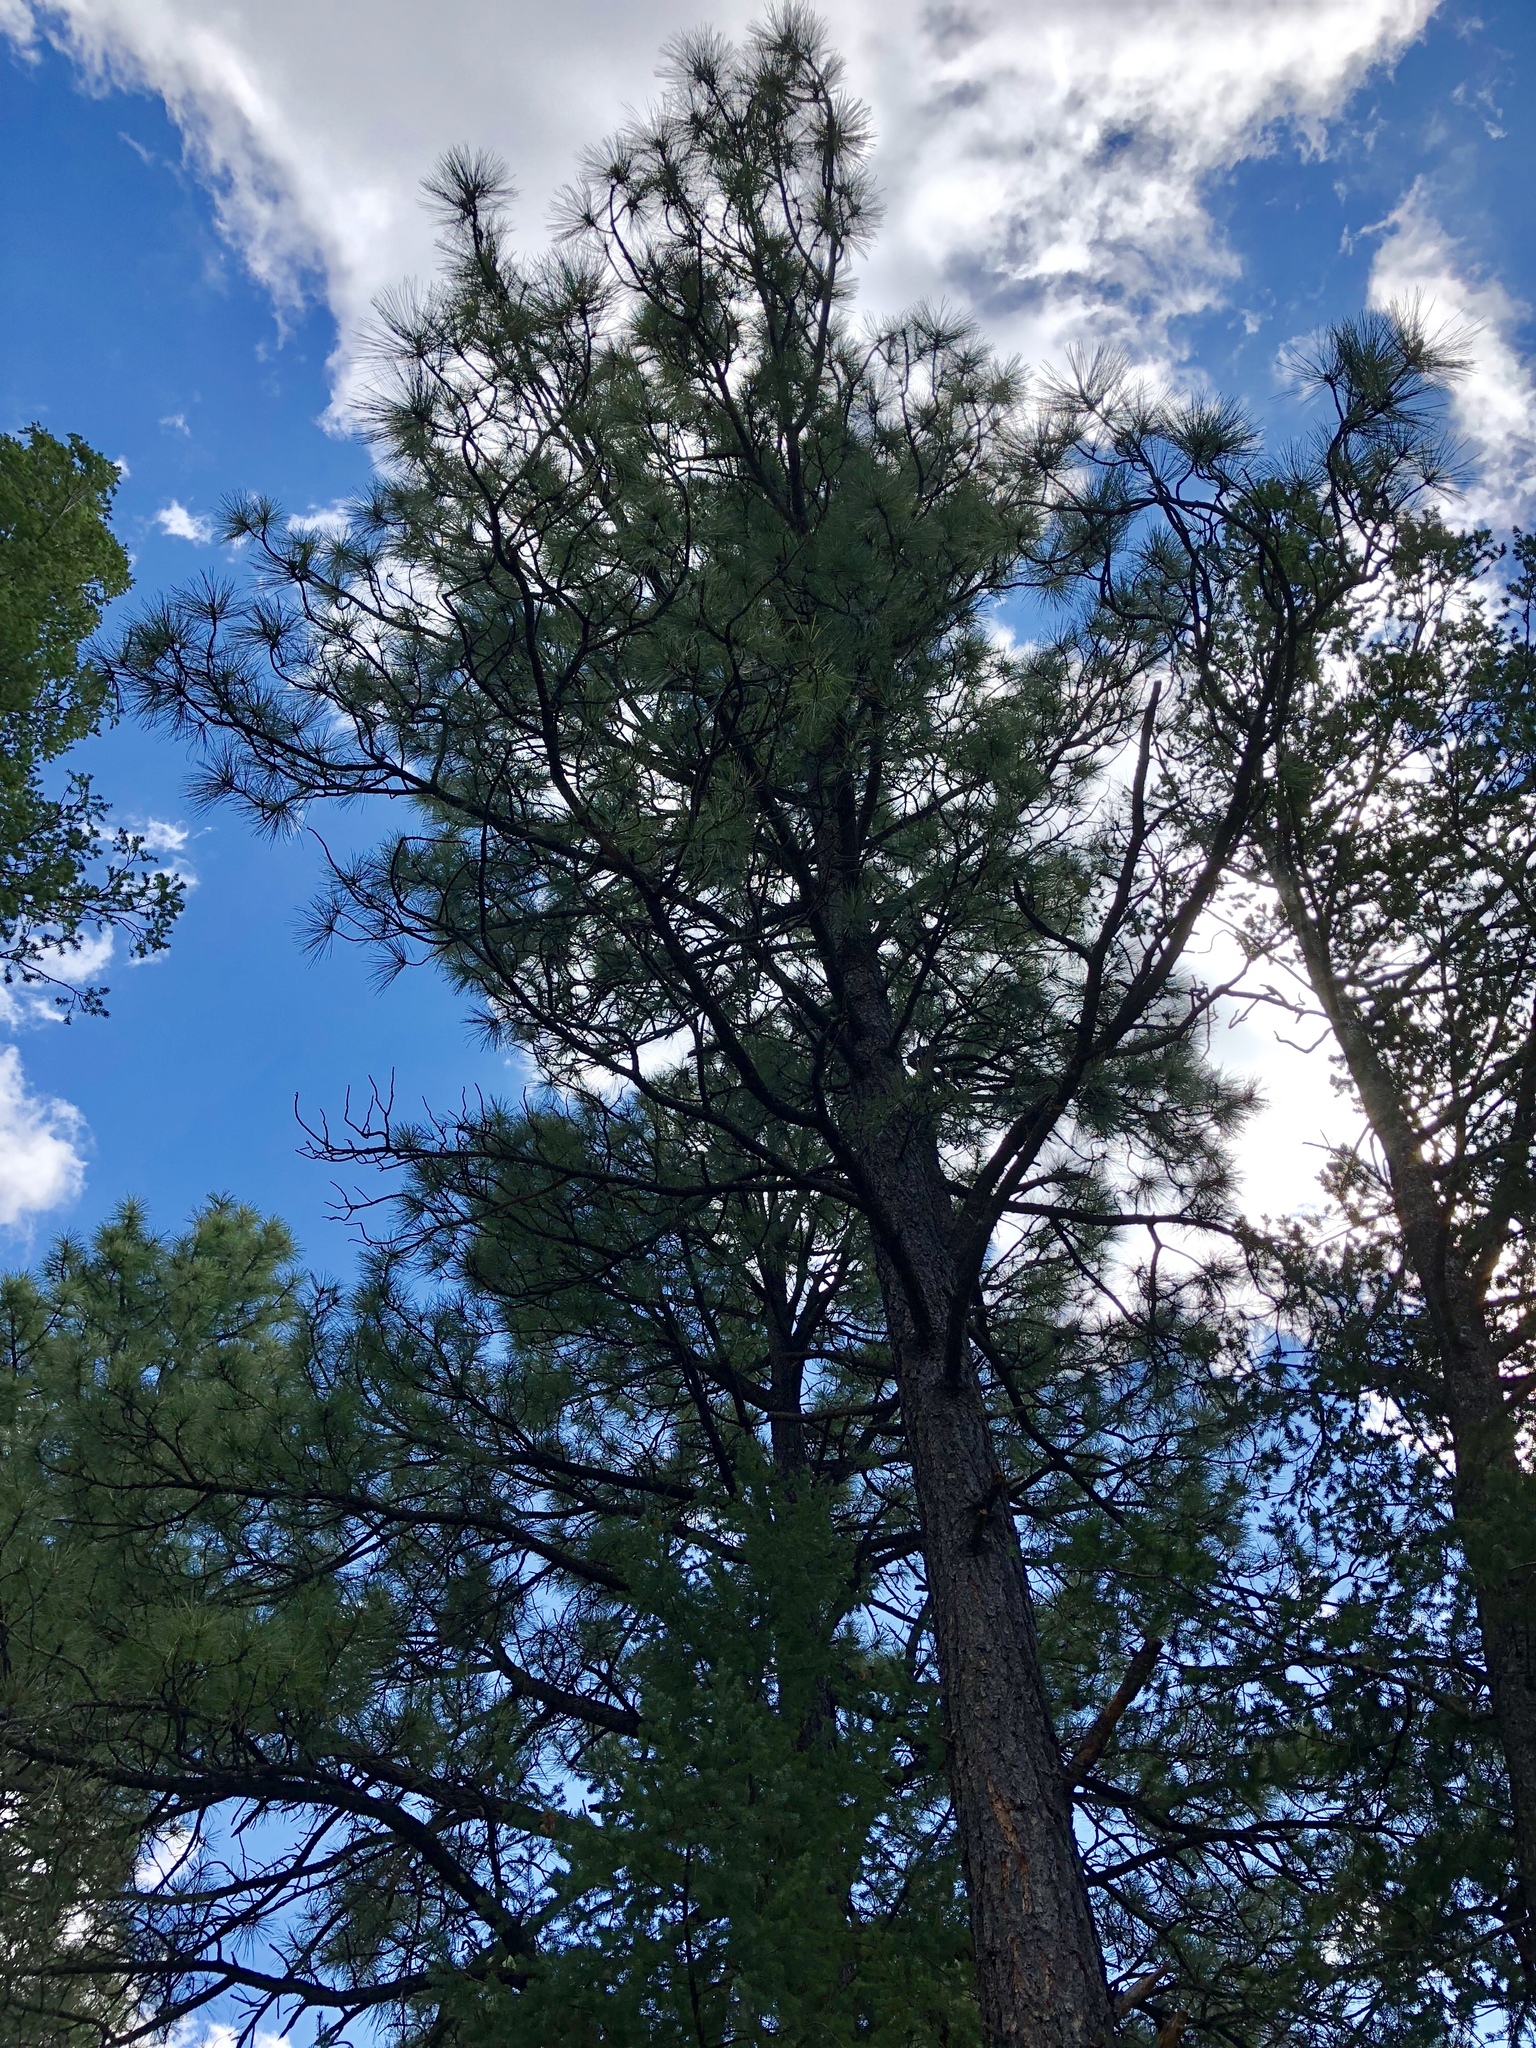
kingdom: Plantae
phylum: Tracheophyta
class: Pinopsida
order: Pinales
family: Pinaceae
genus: Pinus
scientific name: Pinus ponderosa
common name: Western yellow-pine
